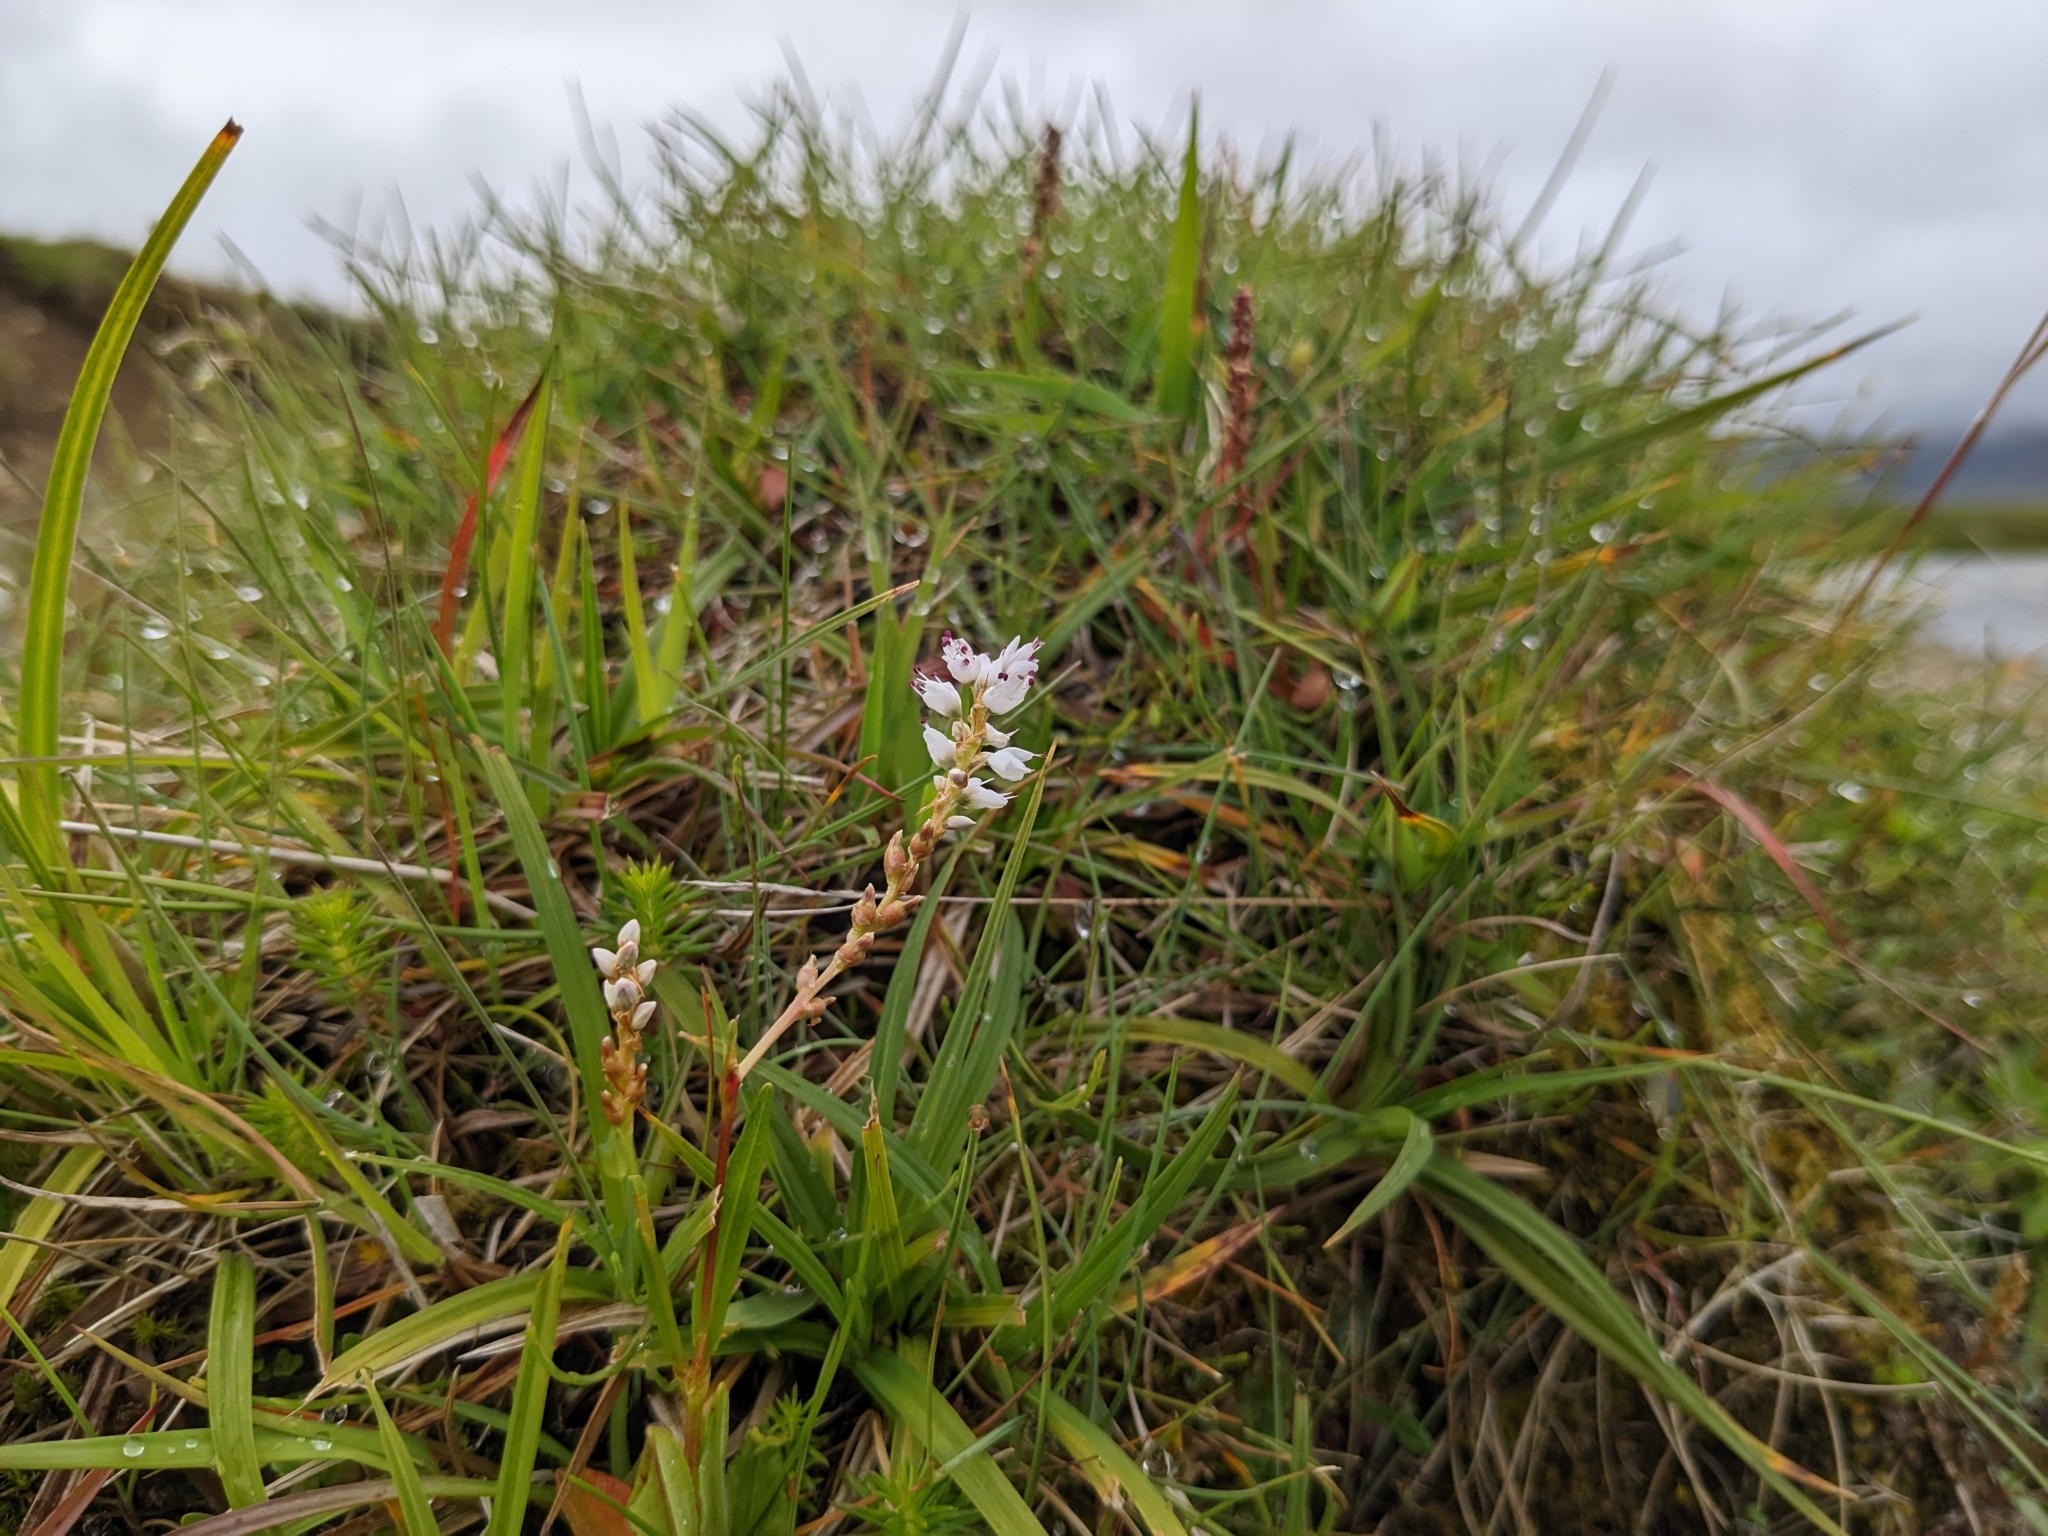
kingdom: Plantae
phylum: Tracheophyta
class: Magnoliopsida
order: Caryophyllales
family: Polygonaceae
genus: Bistorta
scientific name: Bistorta vivipara
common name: Alpine bistort
